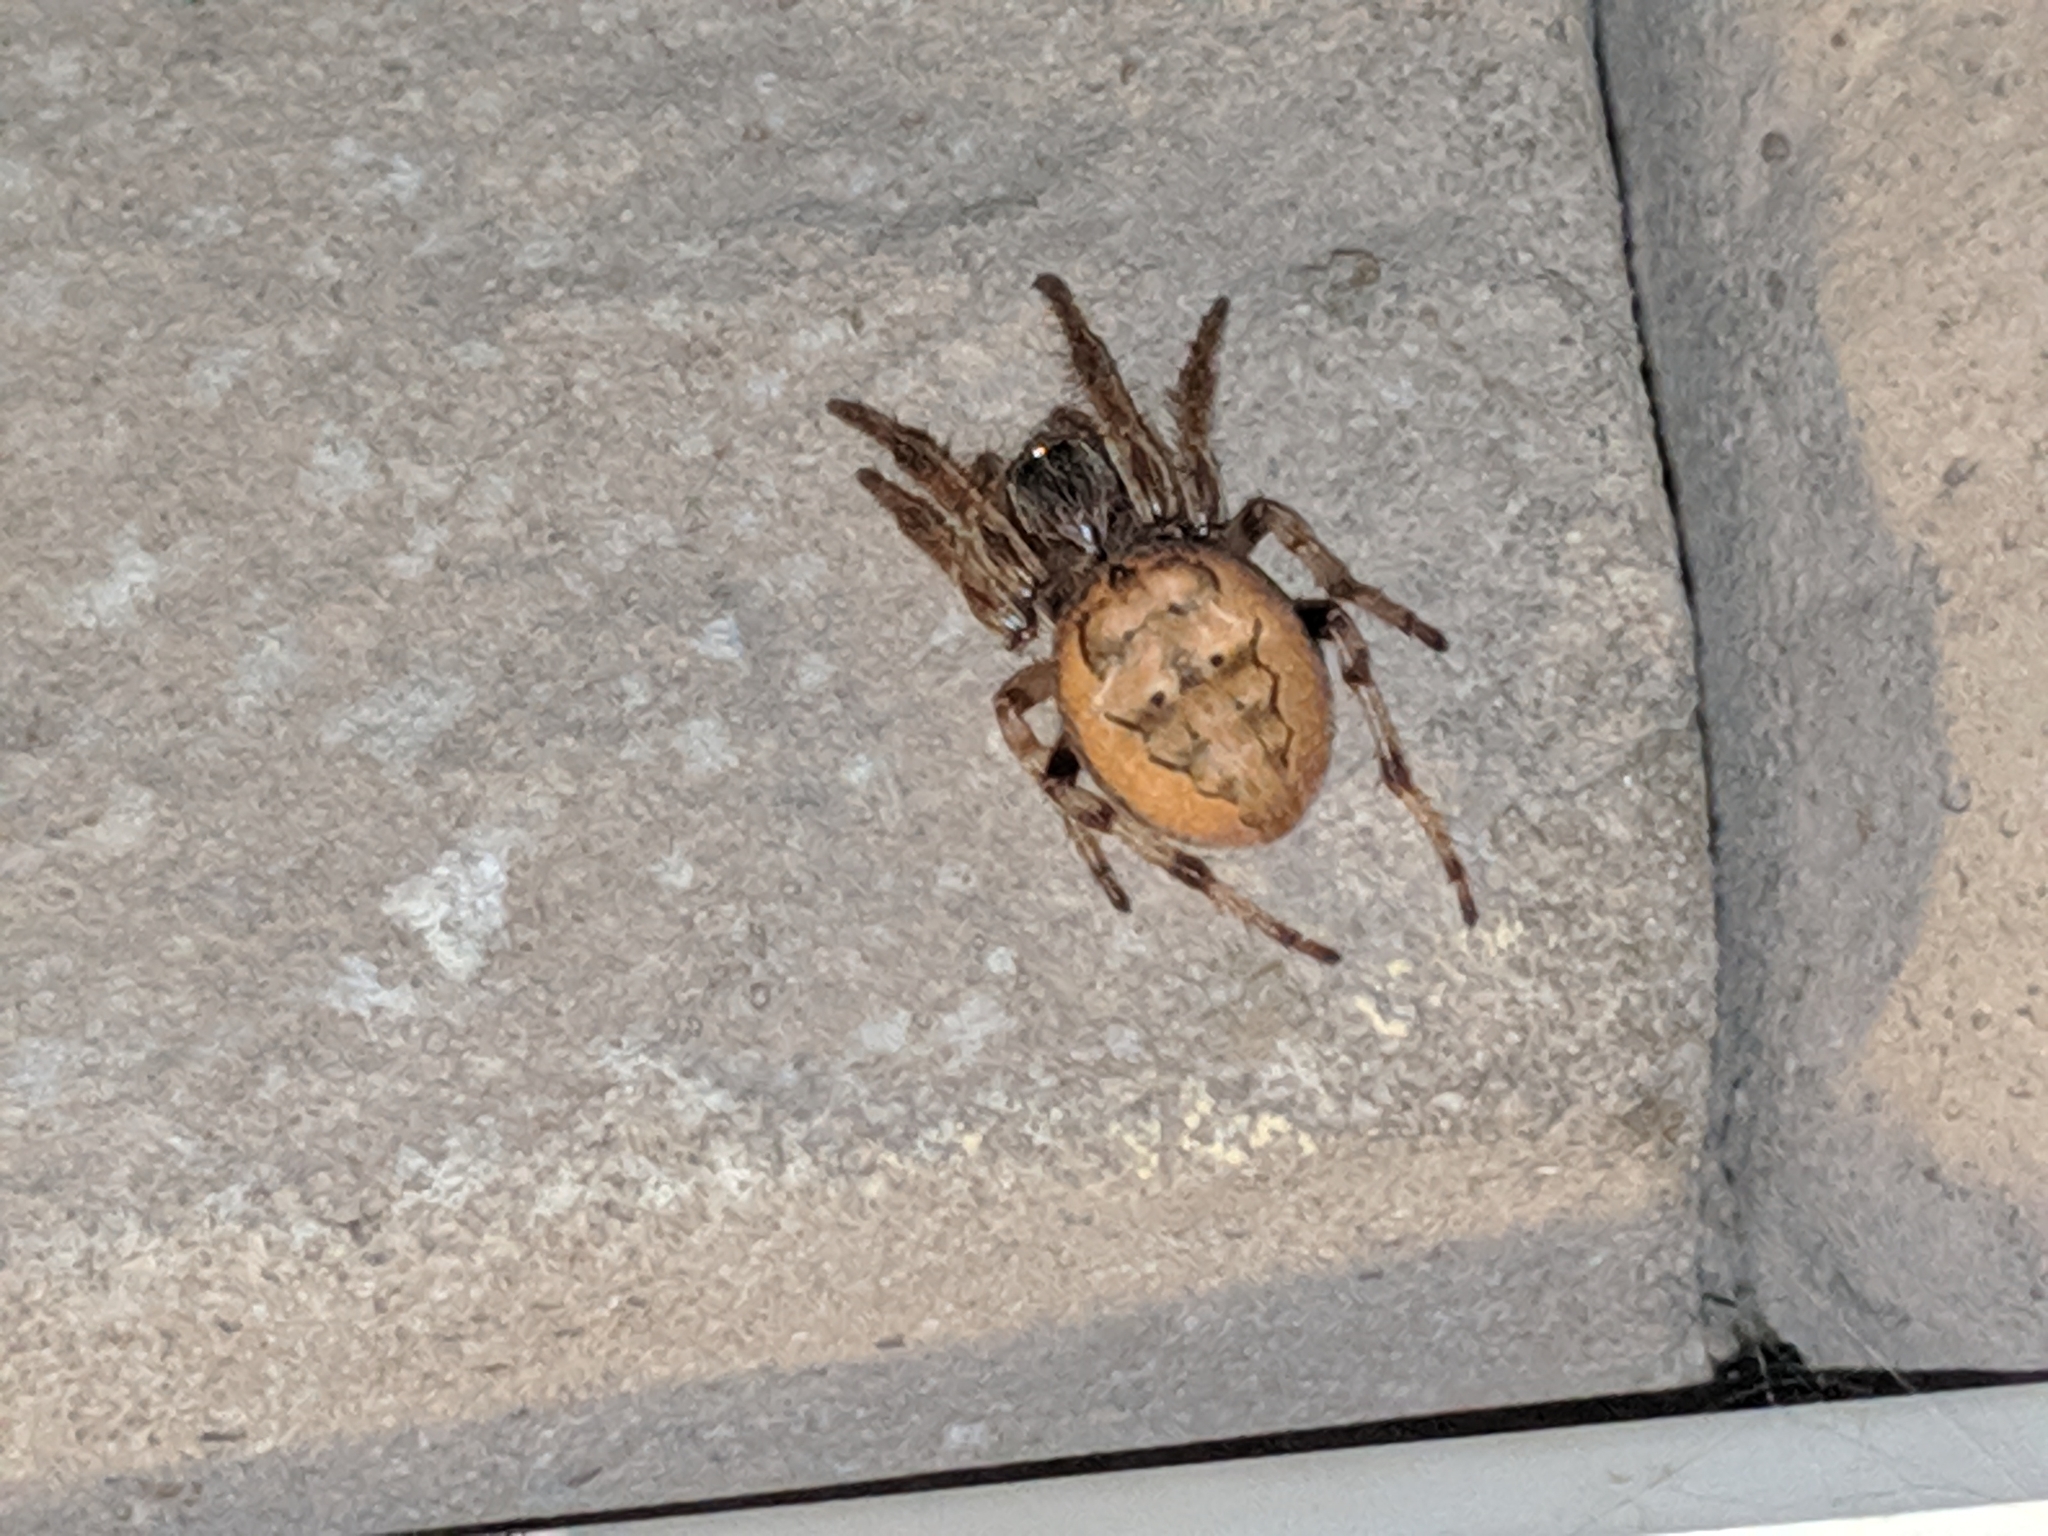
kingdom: Animalia
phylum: Arthropoda
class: Arachnida
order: Araneae
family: Araneidae
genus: Larinioides
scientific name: Larinioides cornutus
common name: Furrow orbweaver
